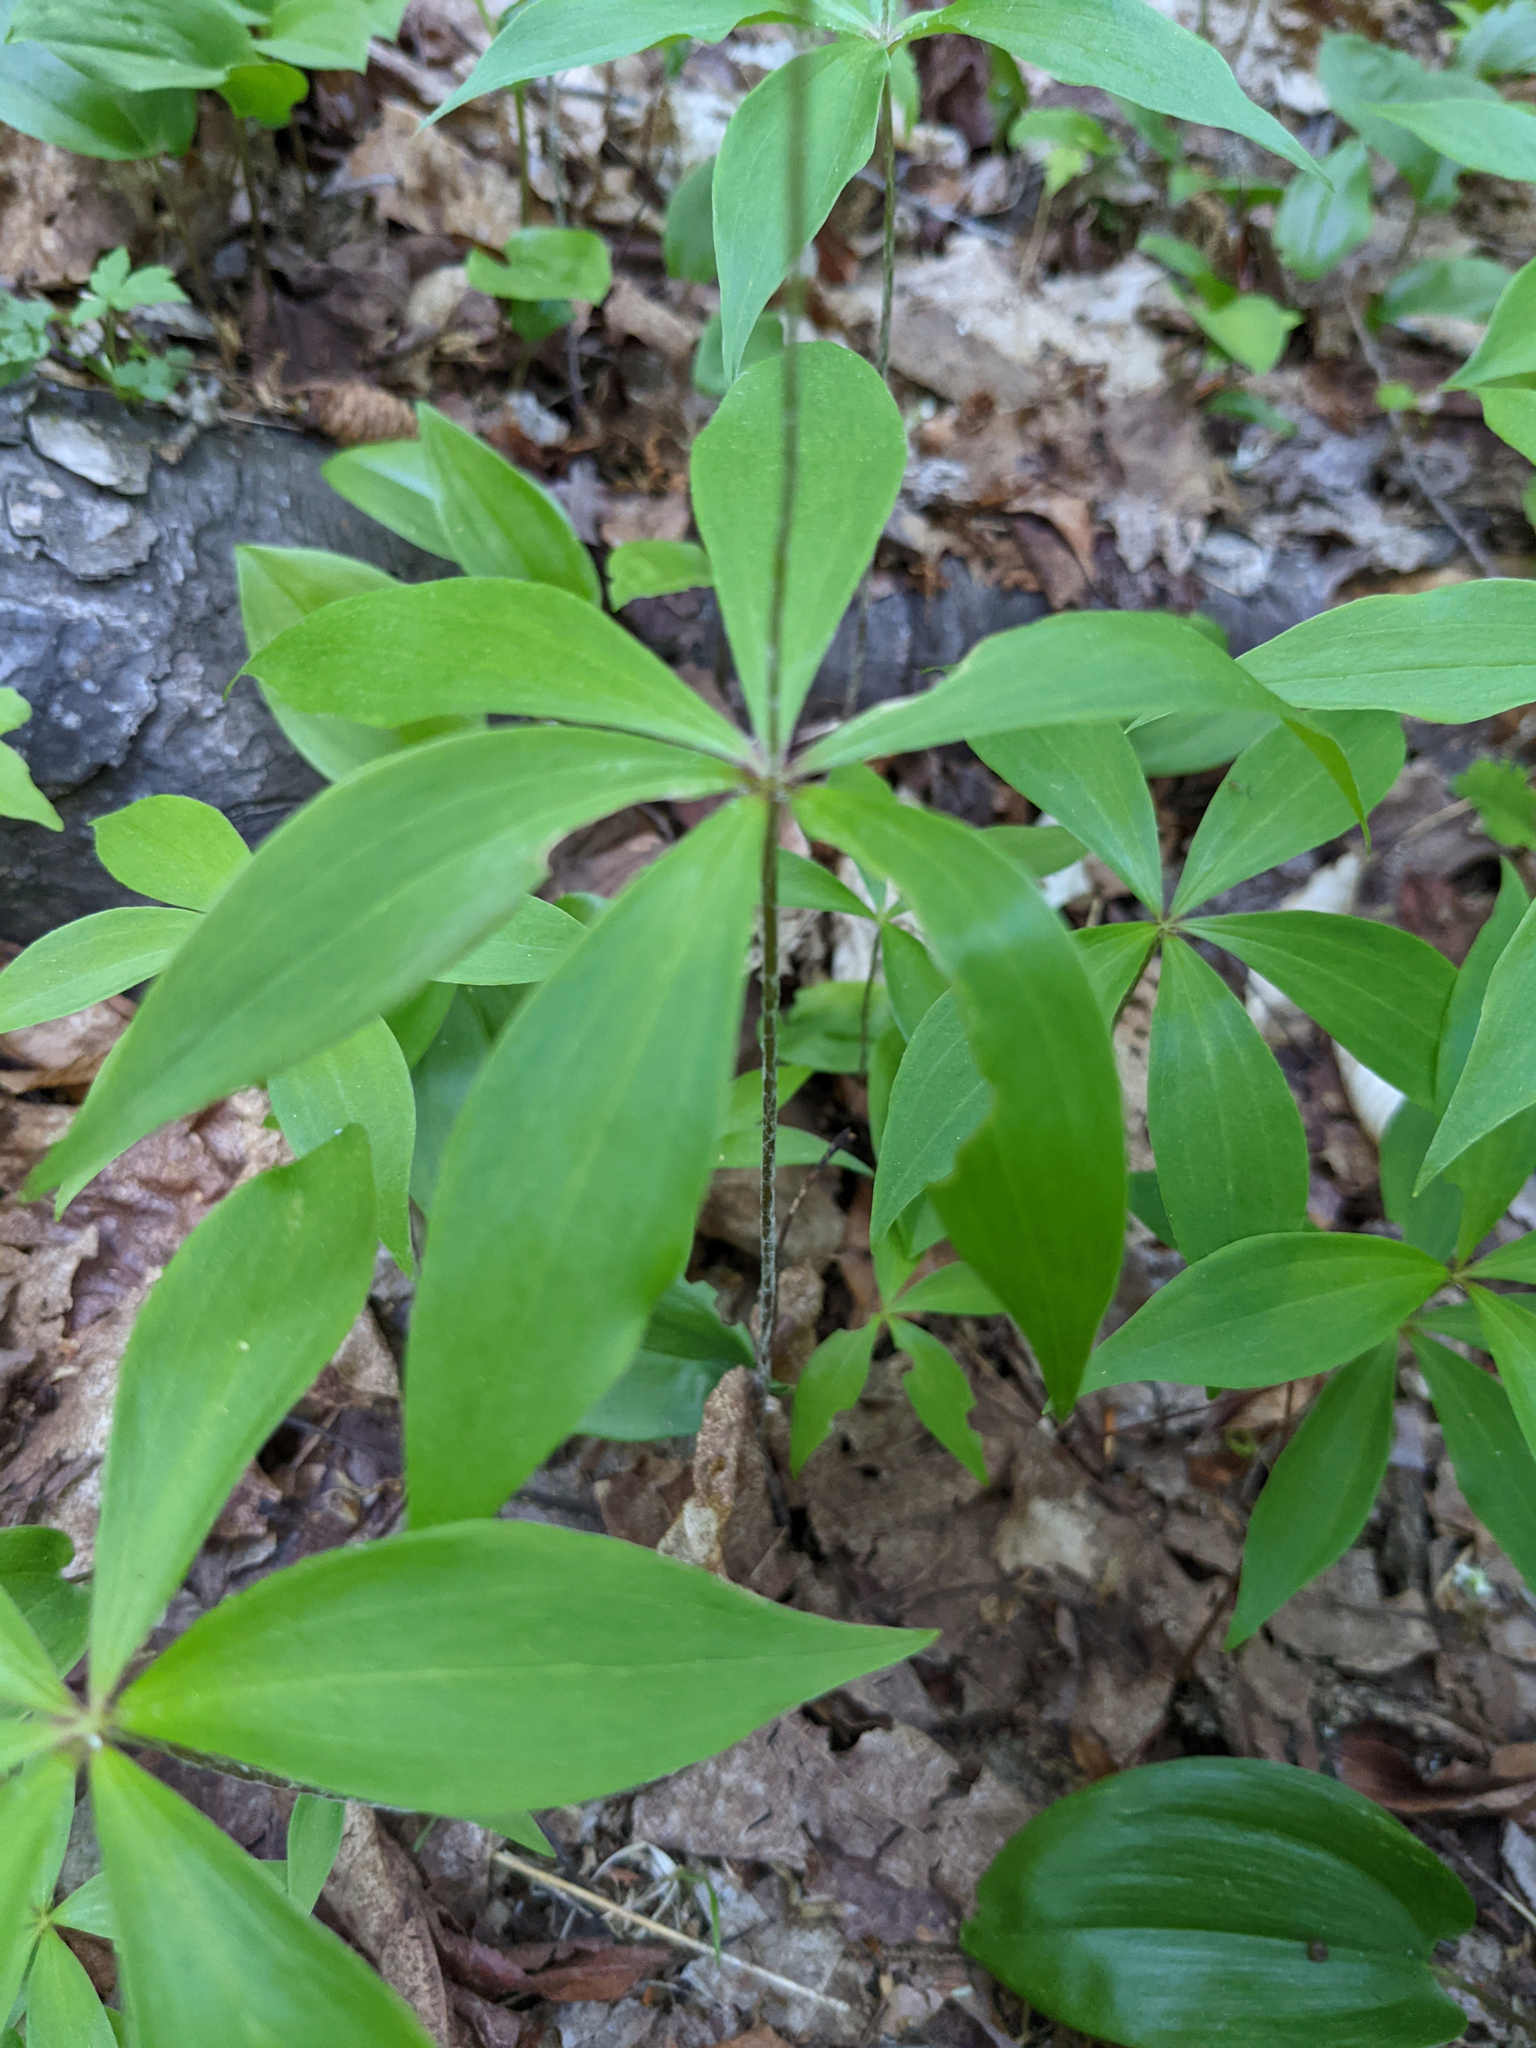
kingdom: Plantae
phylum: Tracheophyta
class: Liliopsida
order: Liliales
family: Liliaceae
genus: Medeola
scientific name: Medeola virginiana
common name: Indian cucumber-root
